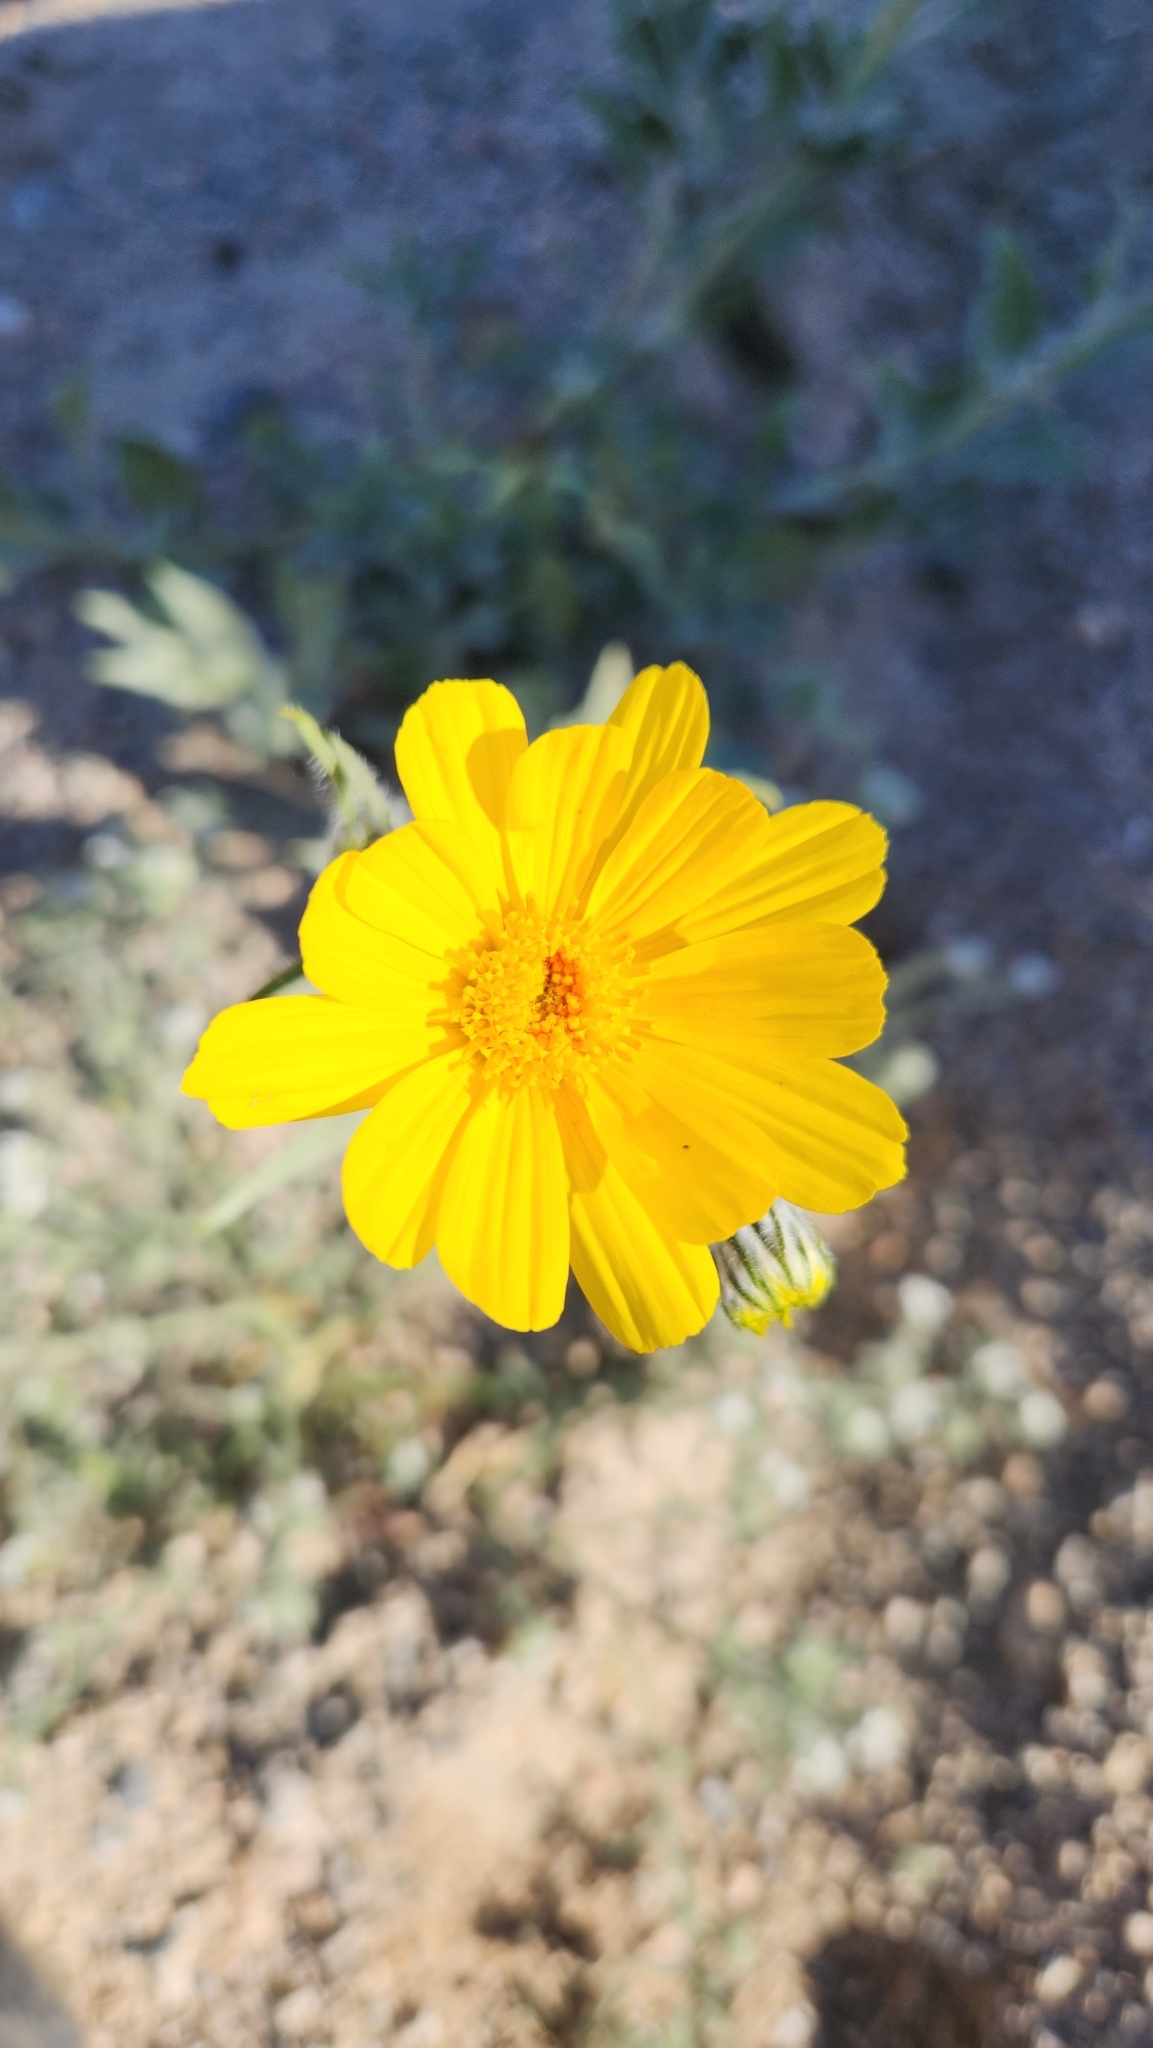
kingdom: Plantae
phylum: Tracheophyta
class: Magnoliopsida
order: Asterales
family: Asteraceae
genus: Geraea
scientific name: Geraea canescens
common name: Desert-gold
